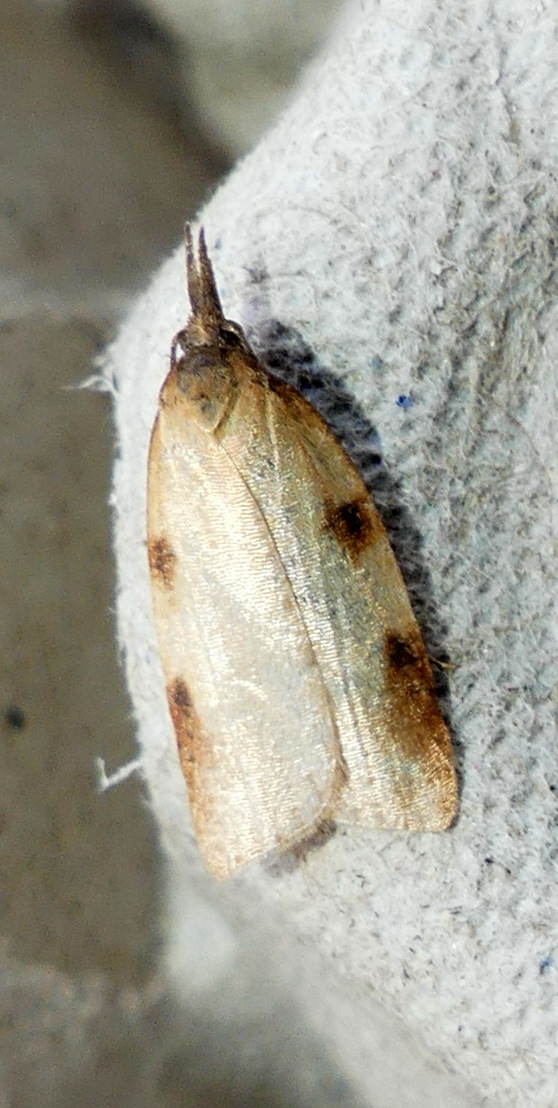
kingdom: Animalia
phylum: Arthropoda
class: Insecta
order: Lepidoptera
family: Tortricidae
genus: Sparganothis
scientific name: Sparganothis boweri
